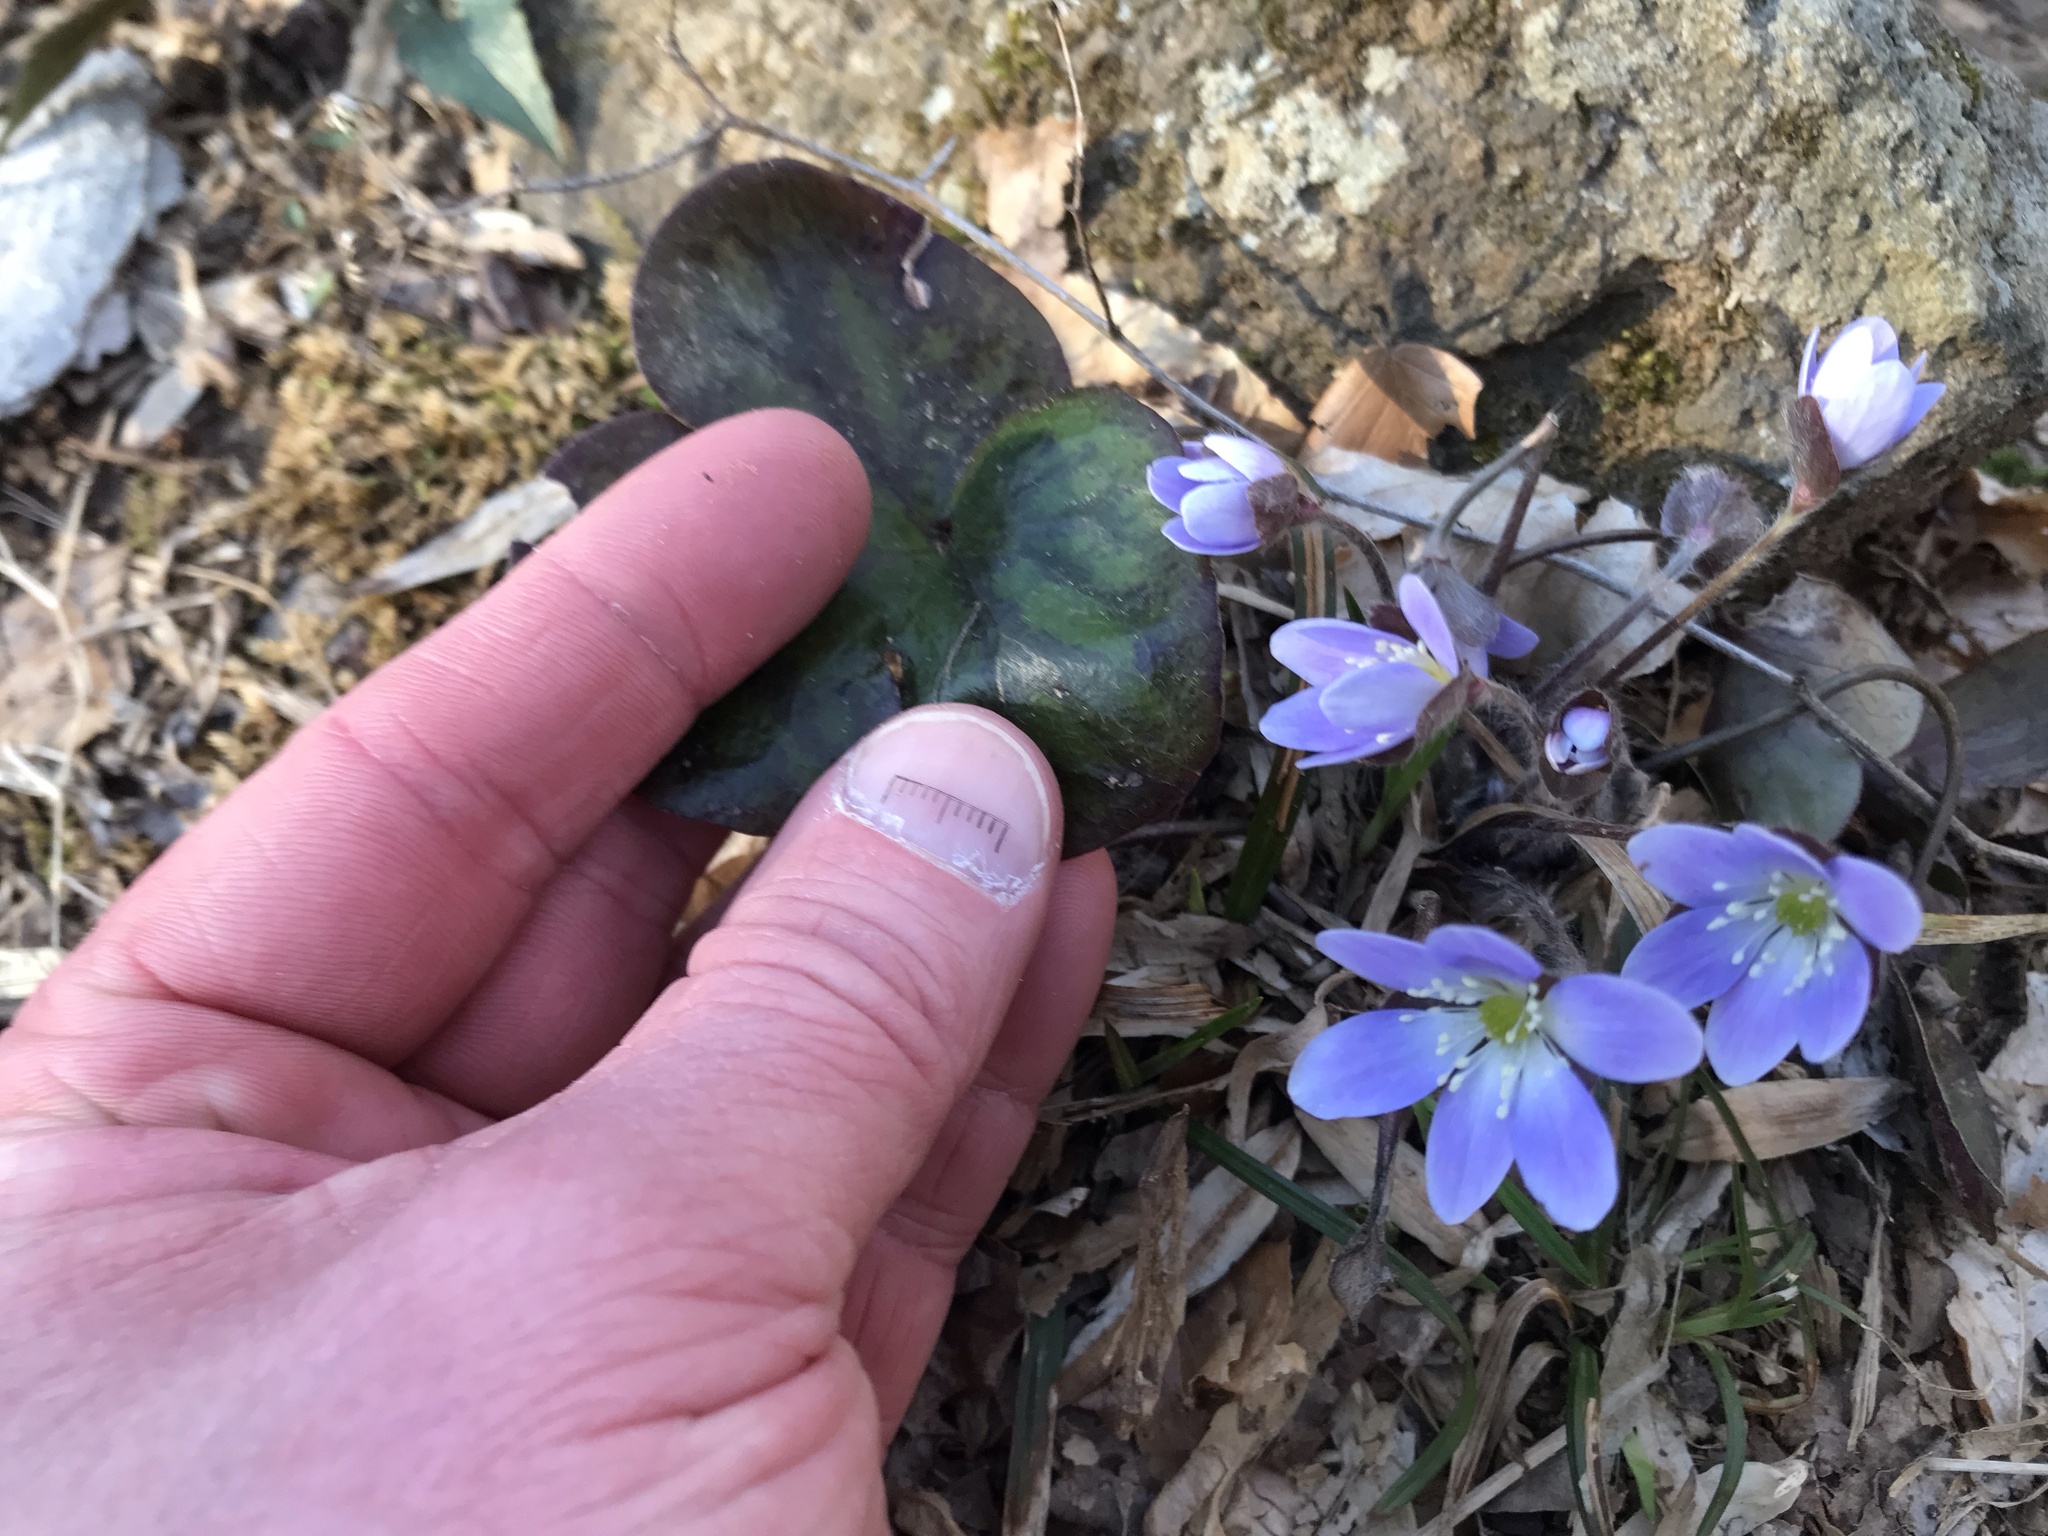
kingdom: Plantae
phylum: Tracheophyta
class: Magnoliopsida
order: Ranunculales
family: Ranunculaceae
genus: Hepatica
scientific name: Hepatica americana
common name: American hepatica
